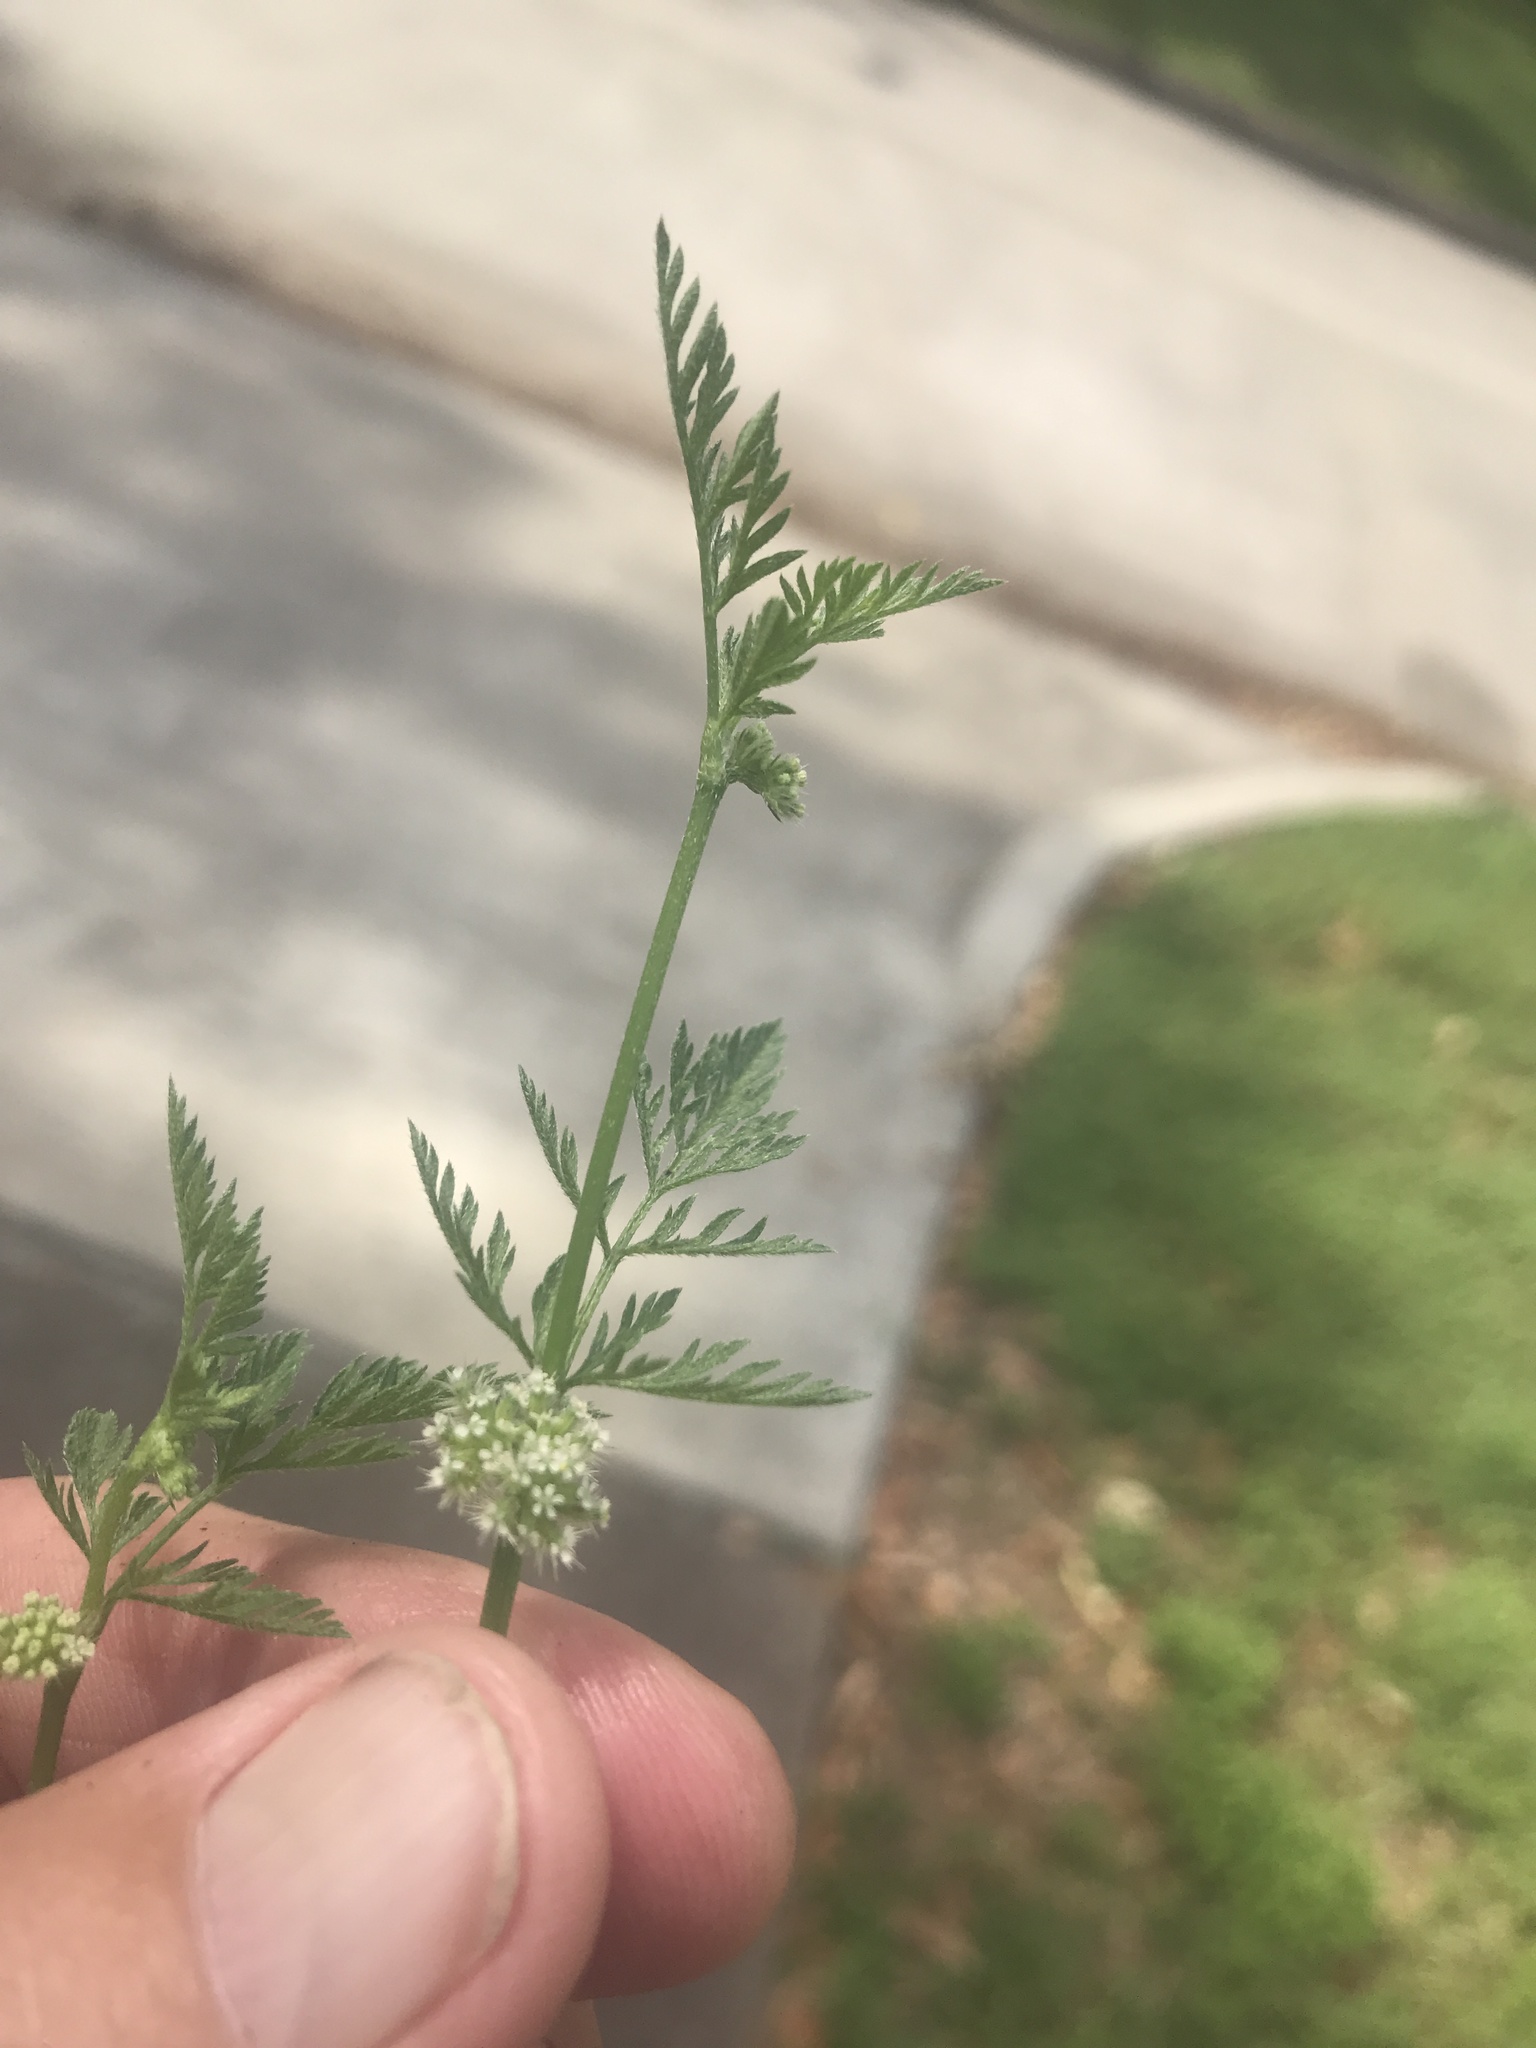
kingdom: Plantae
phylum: Tracheophyta
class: Magnoliopsida
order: Apiales
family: Apiaceae
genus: Torilis
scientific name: Torilis nodosa
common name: Knotted hedge-parsley
